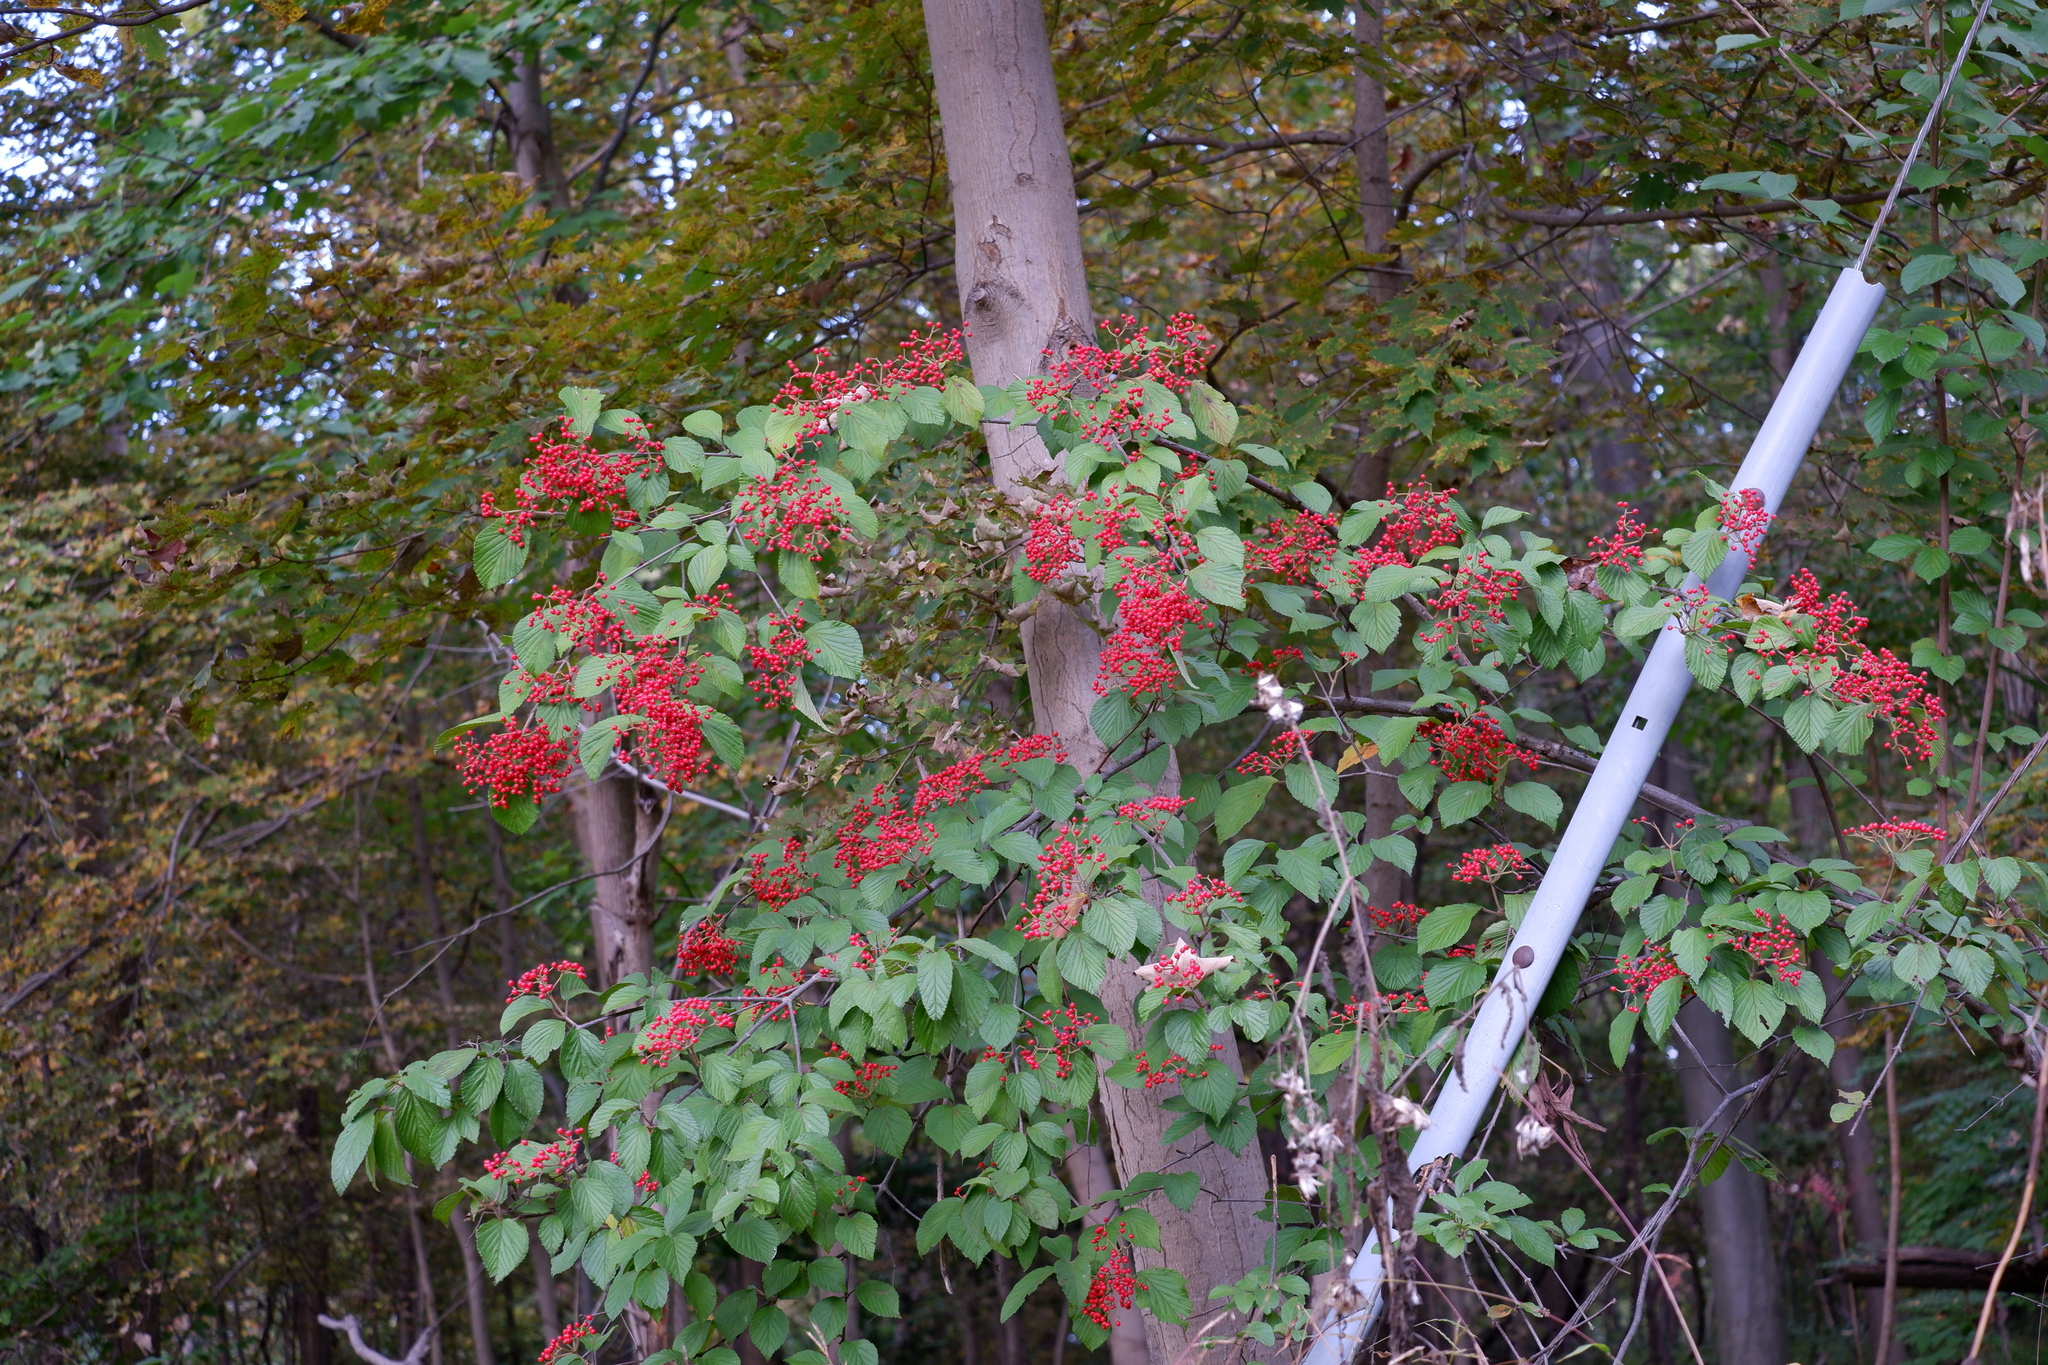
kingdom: Plantae
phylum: Tracheophyta
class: Magnoliopsida
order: Dipsacales
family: Viburnaceae
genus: Viburnum
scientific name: Viburnum dilatatum
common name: Linden arrowwood
